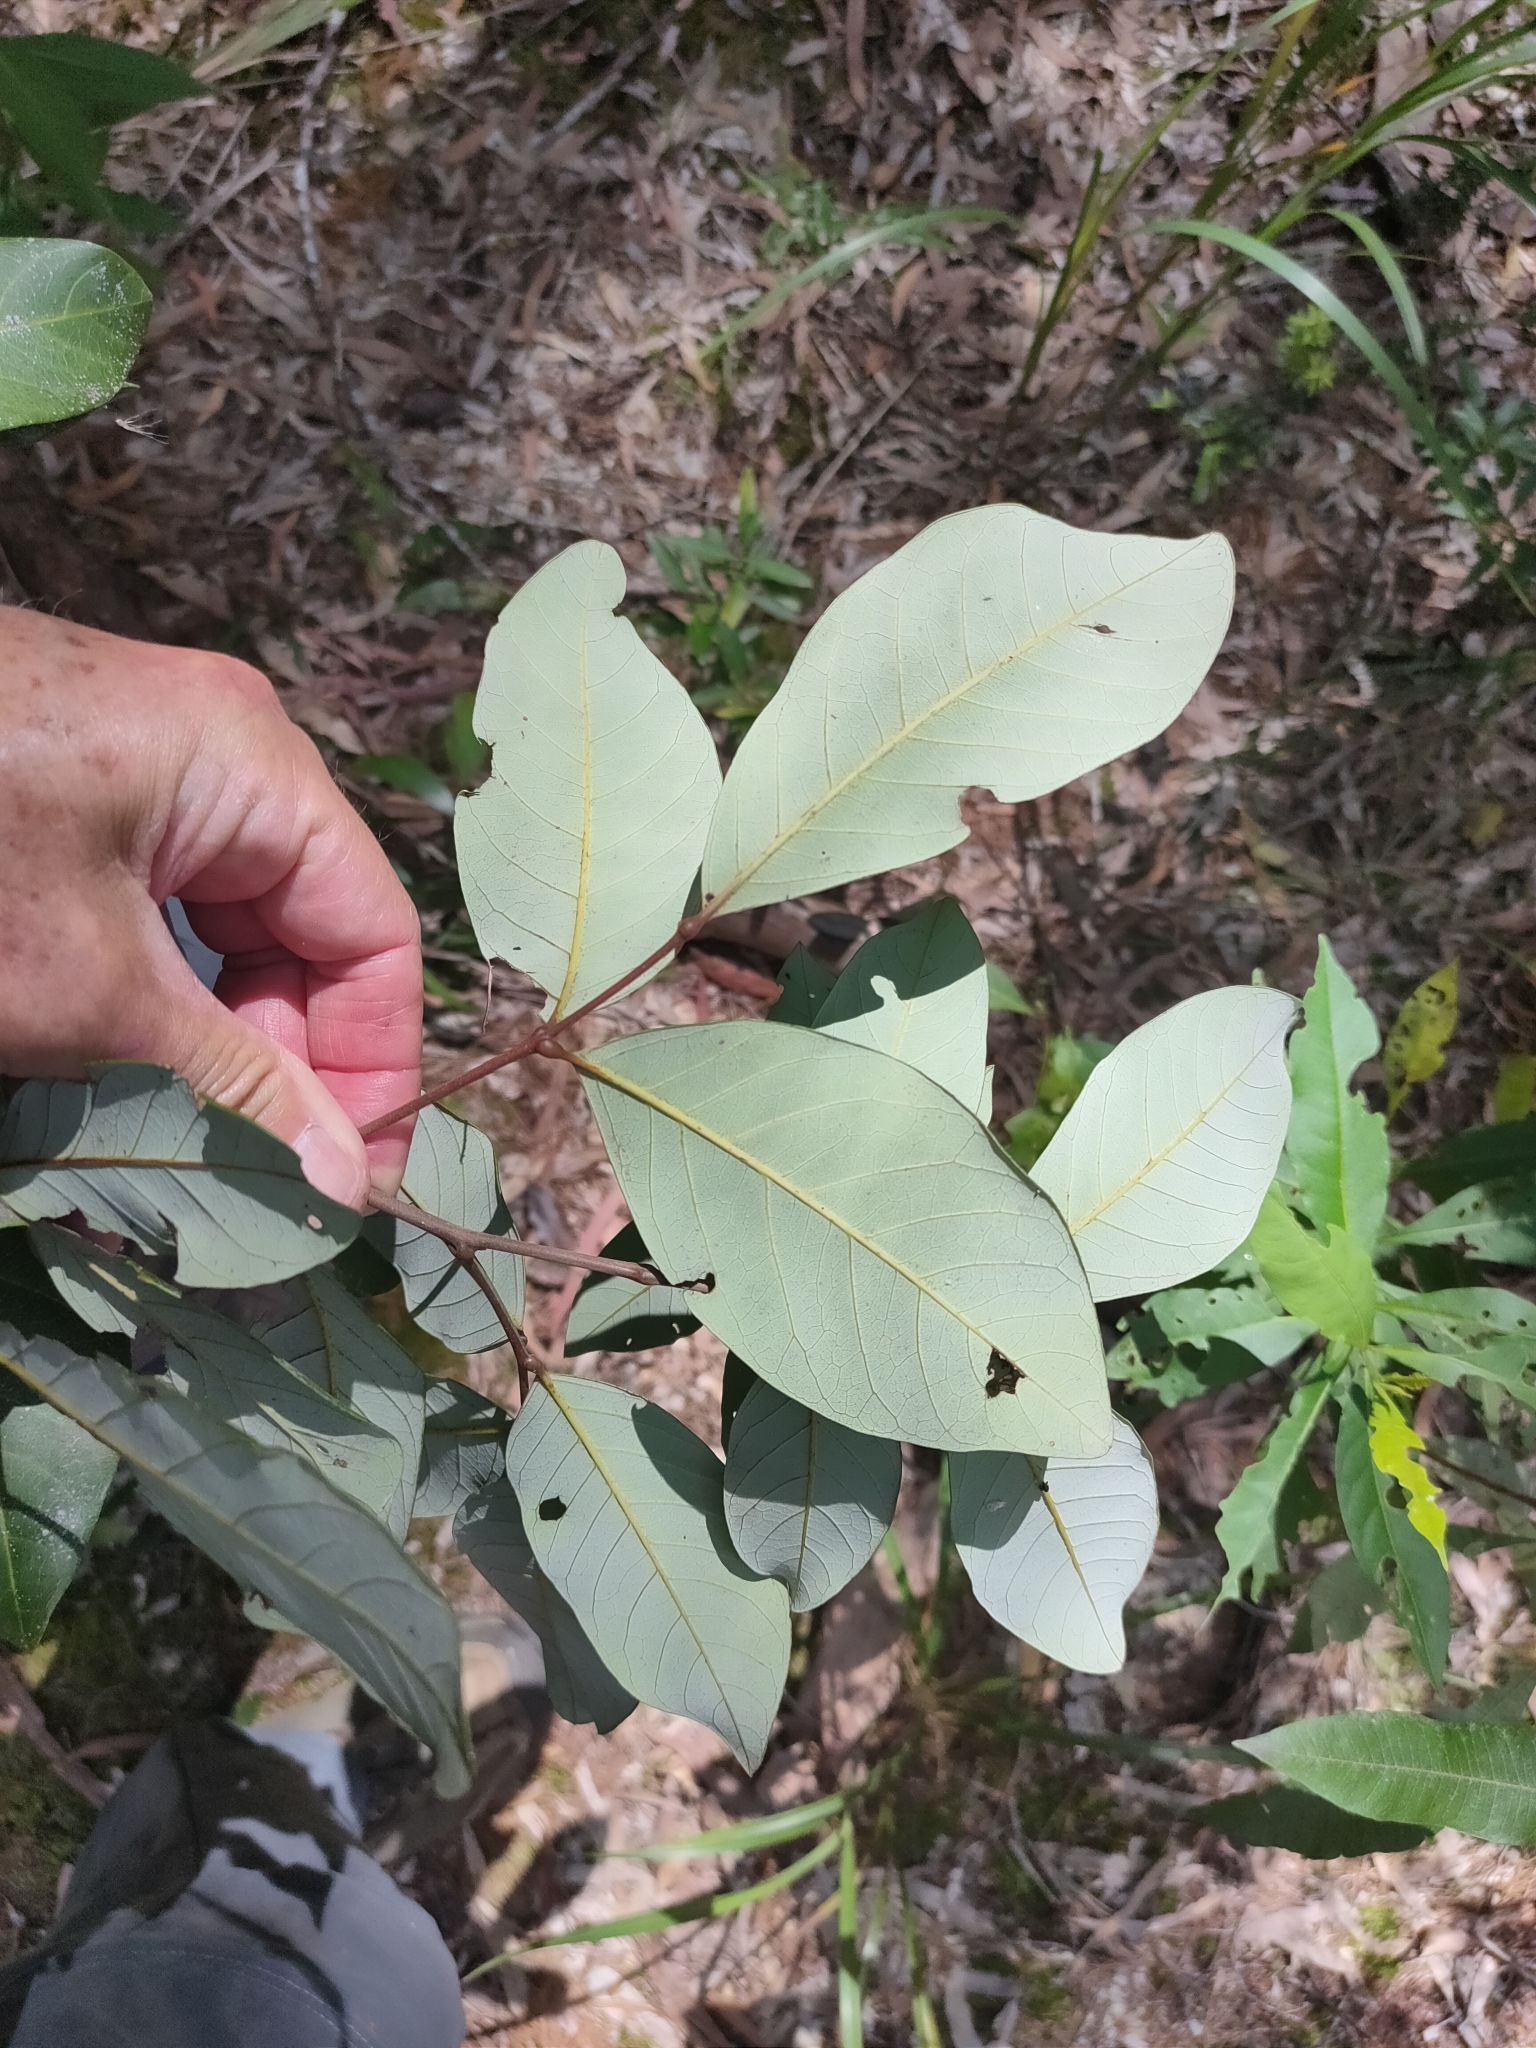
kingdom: Plantae
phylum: Tracheophyta
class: Magnoliopsida
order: Sapindales
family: Sapindaceae
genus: Alectryon
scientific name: Alectryon coriaceus
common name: Beach alectryon
